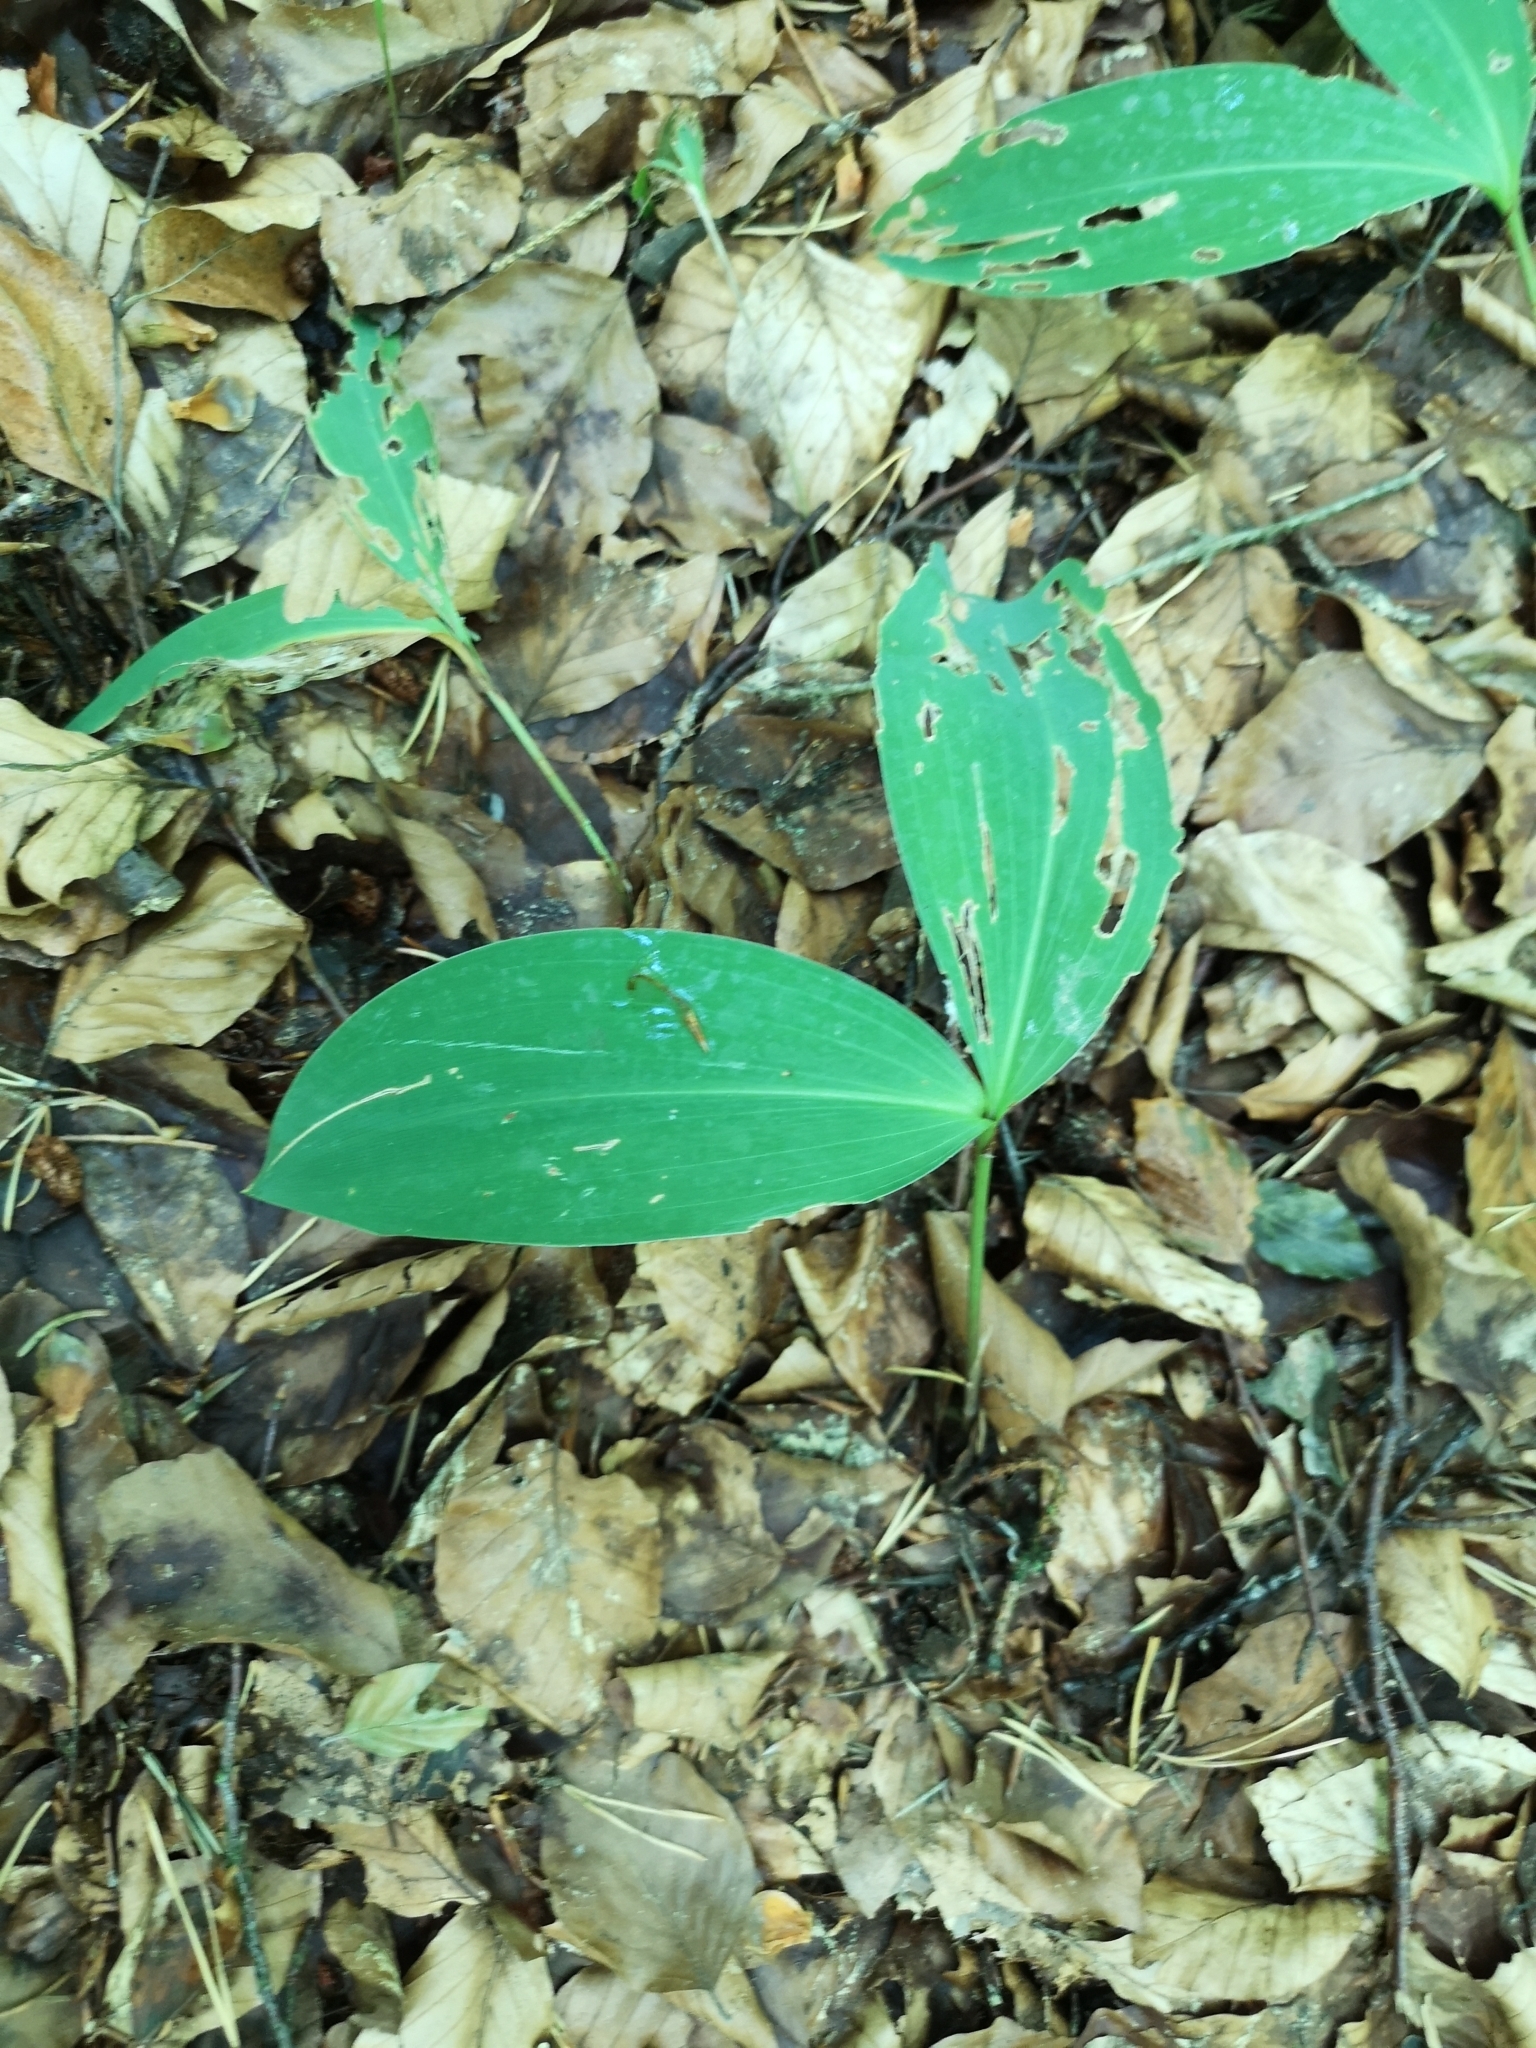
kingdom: Plantae
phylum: Tracheophyta
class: Liliopsida
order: Asparagales
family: Asparagaceae
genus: Convallaria
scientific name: Convallaria majalis
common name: Lily-of-the-valley
